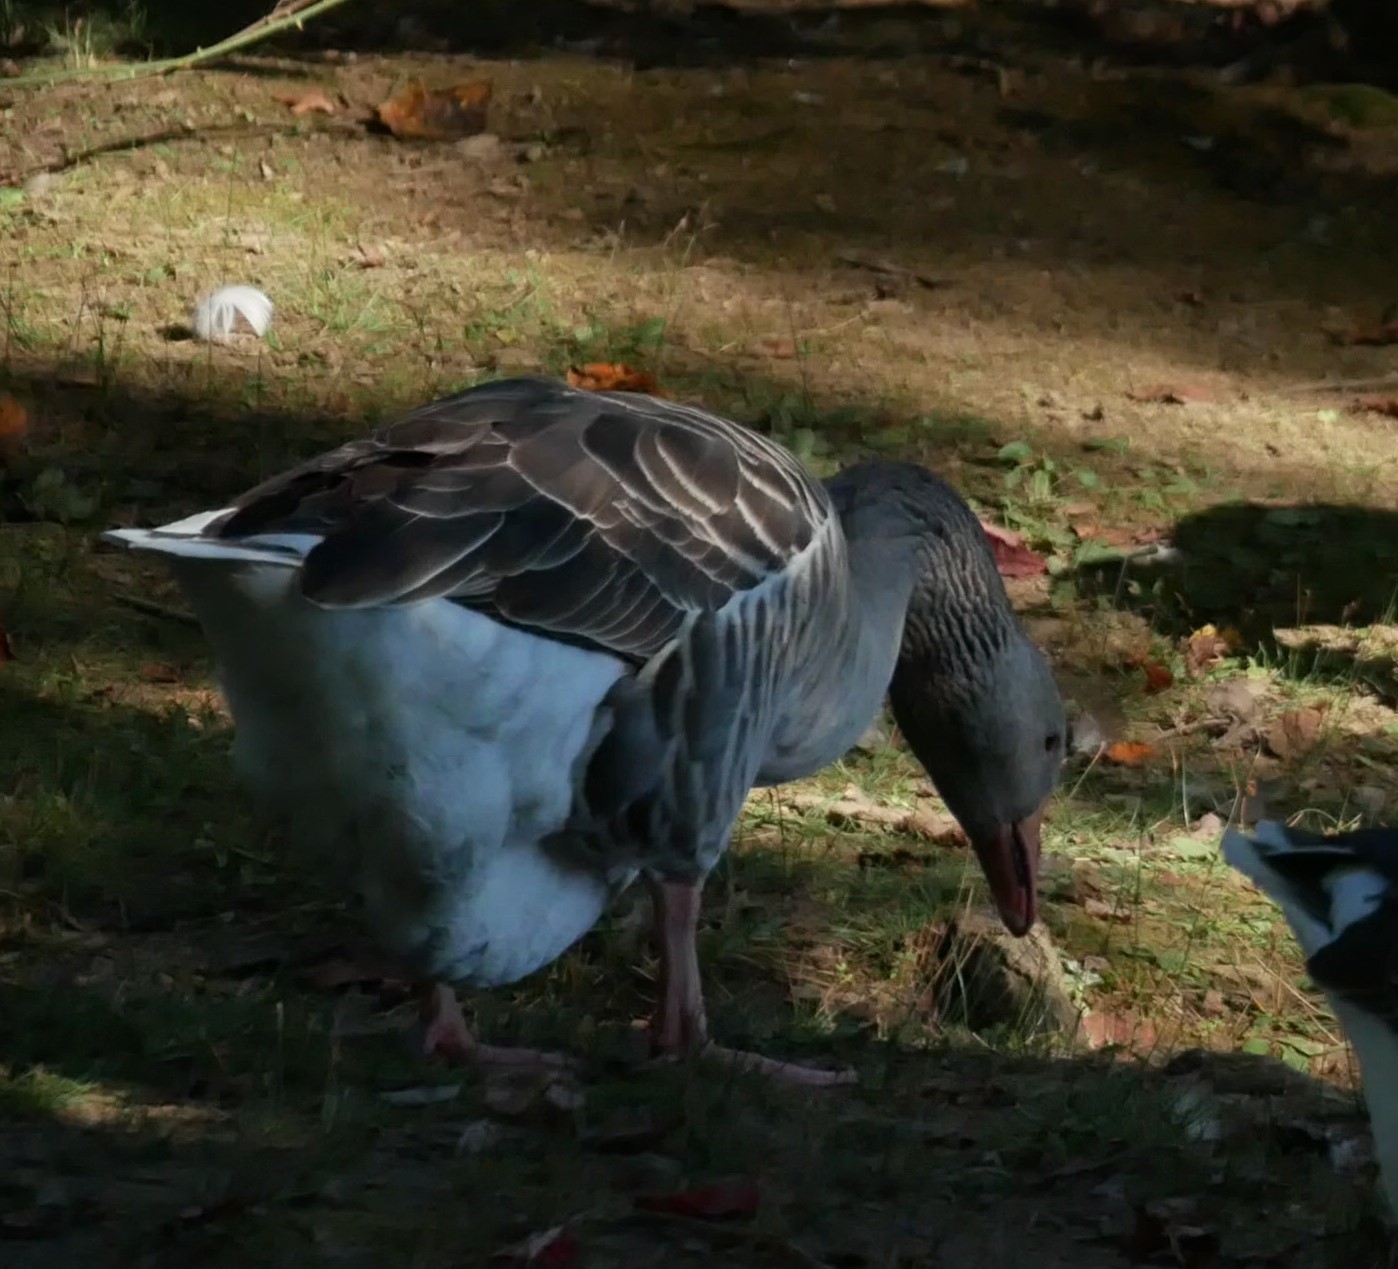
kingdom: Animalia
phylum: Chordata
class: Aves
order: Anseriformes
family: Anatidae
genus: Anser
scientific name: Anser anser
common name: Greylag goose
